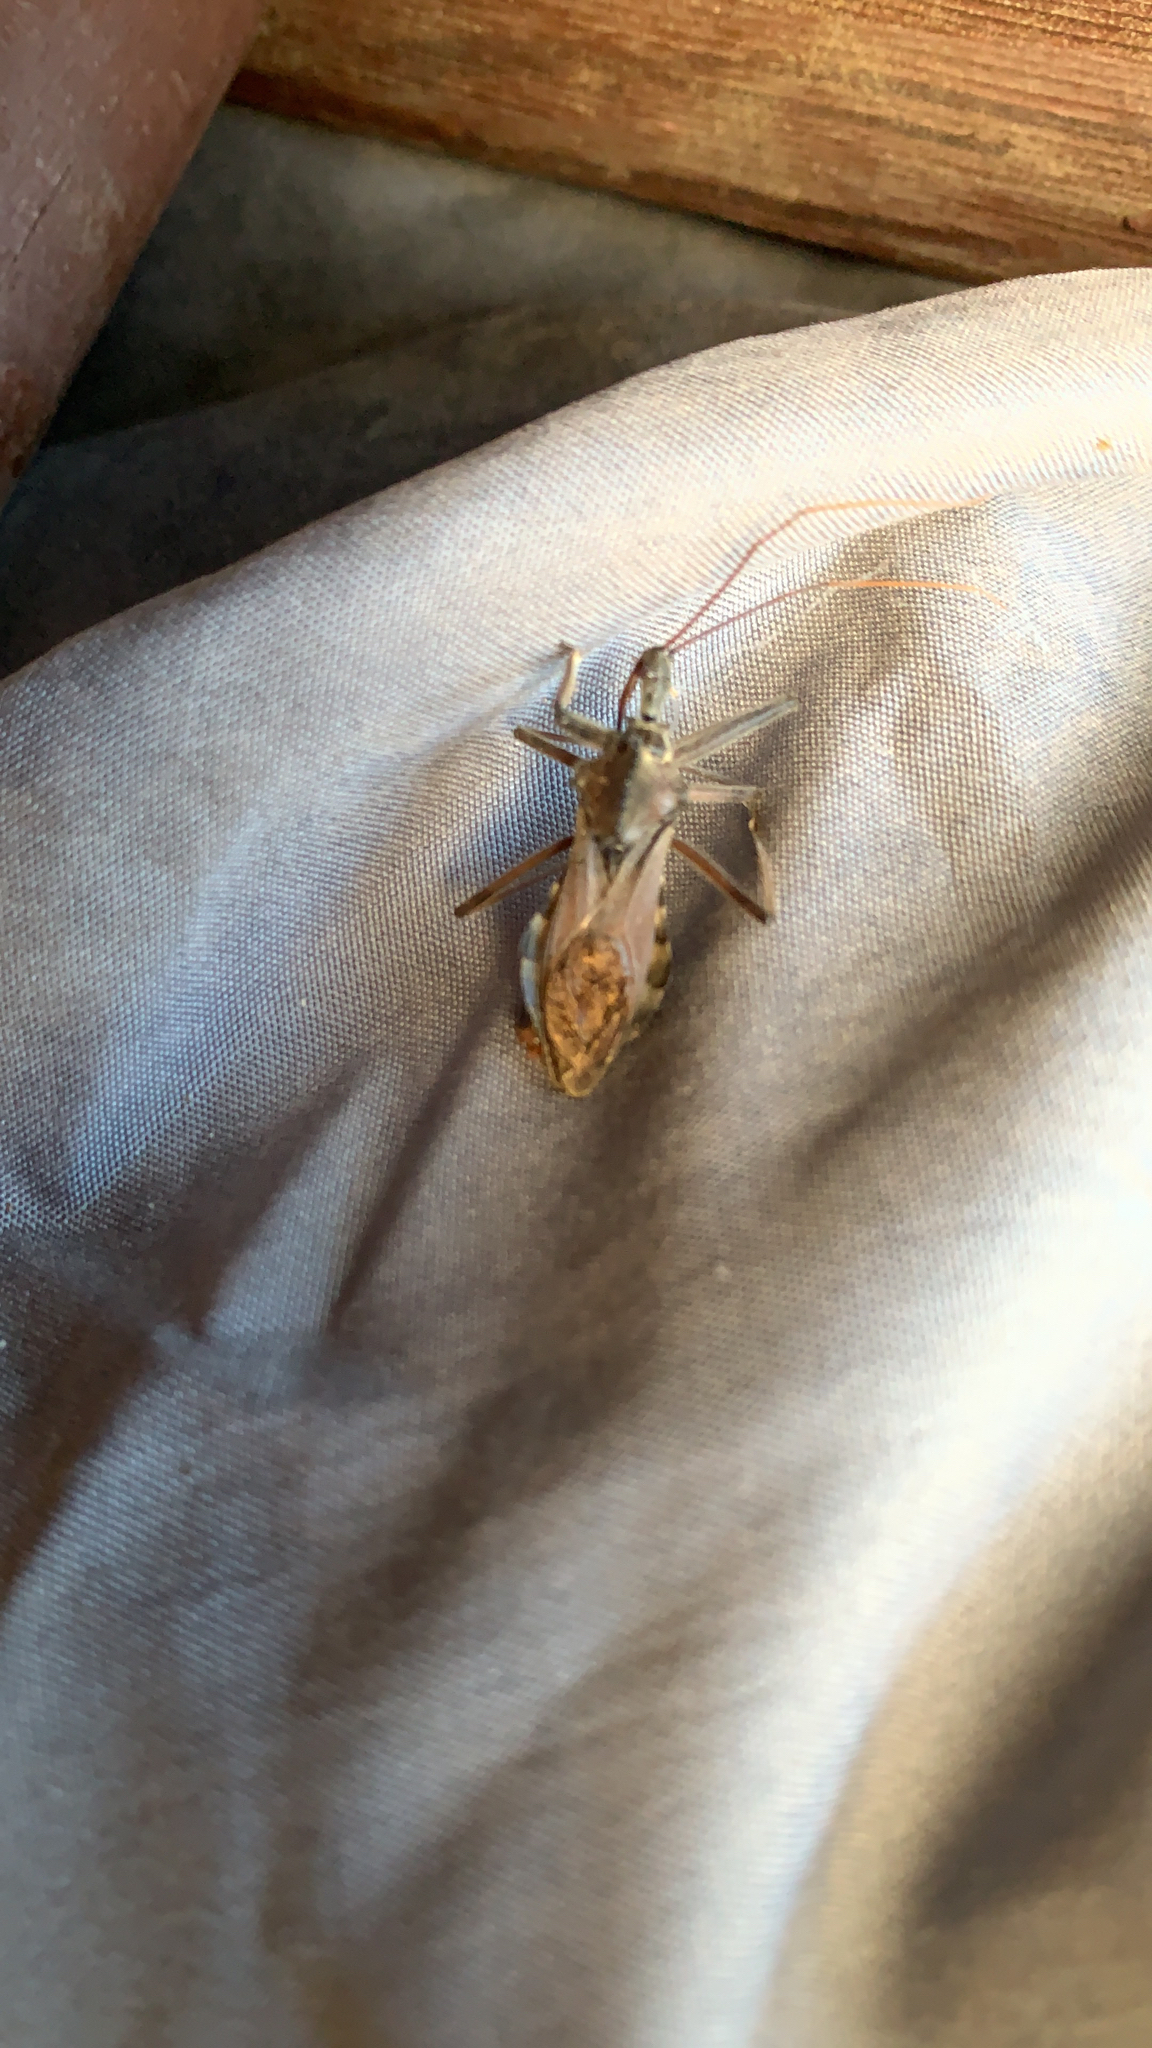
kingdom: Animalia
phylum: Arthropoda
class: Insecta
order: Hemiptera
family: Reduviidae
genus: Arilus
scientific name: Arilus cristatus
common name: North american wheel bug
